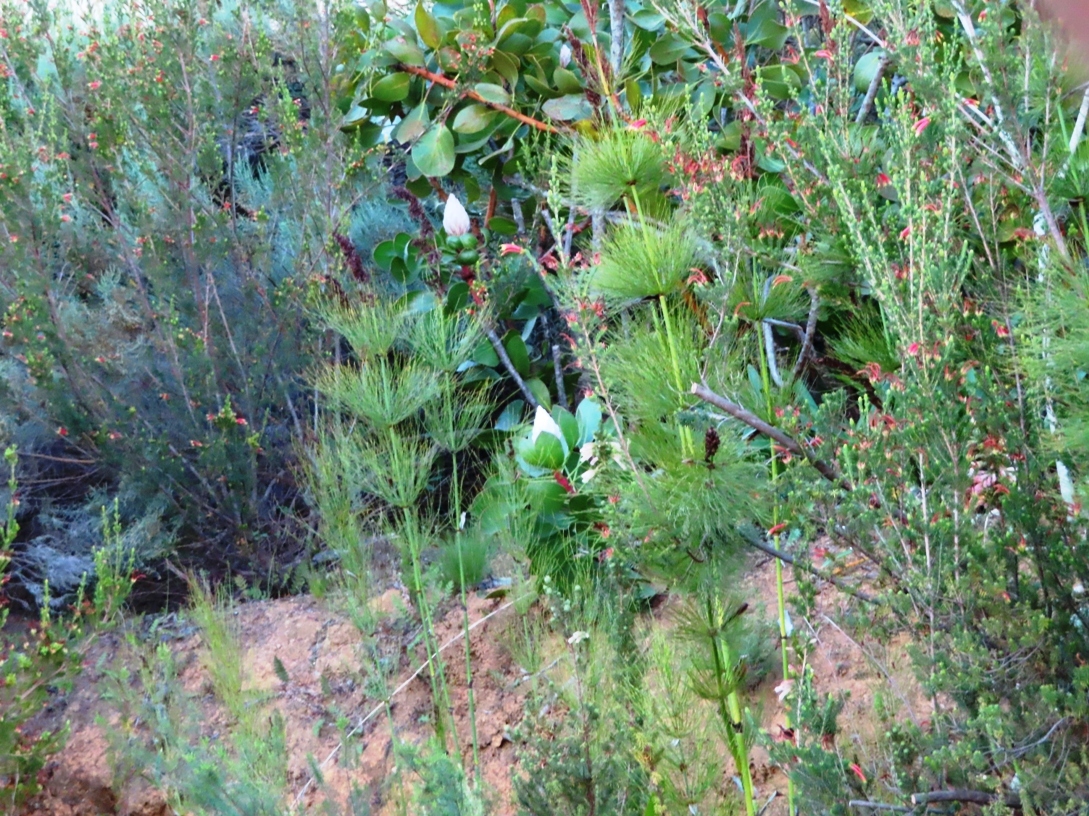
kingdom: Plantae
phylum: Tracheophyta
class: Magnoliopsida
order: Proteales
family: Proteaceae
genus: Protea
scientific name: Protea cynaroides
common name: King protea
